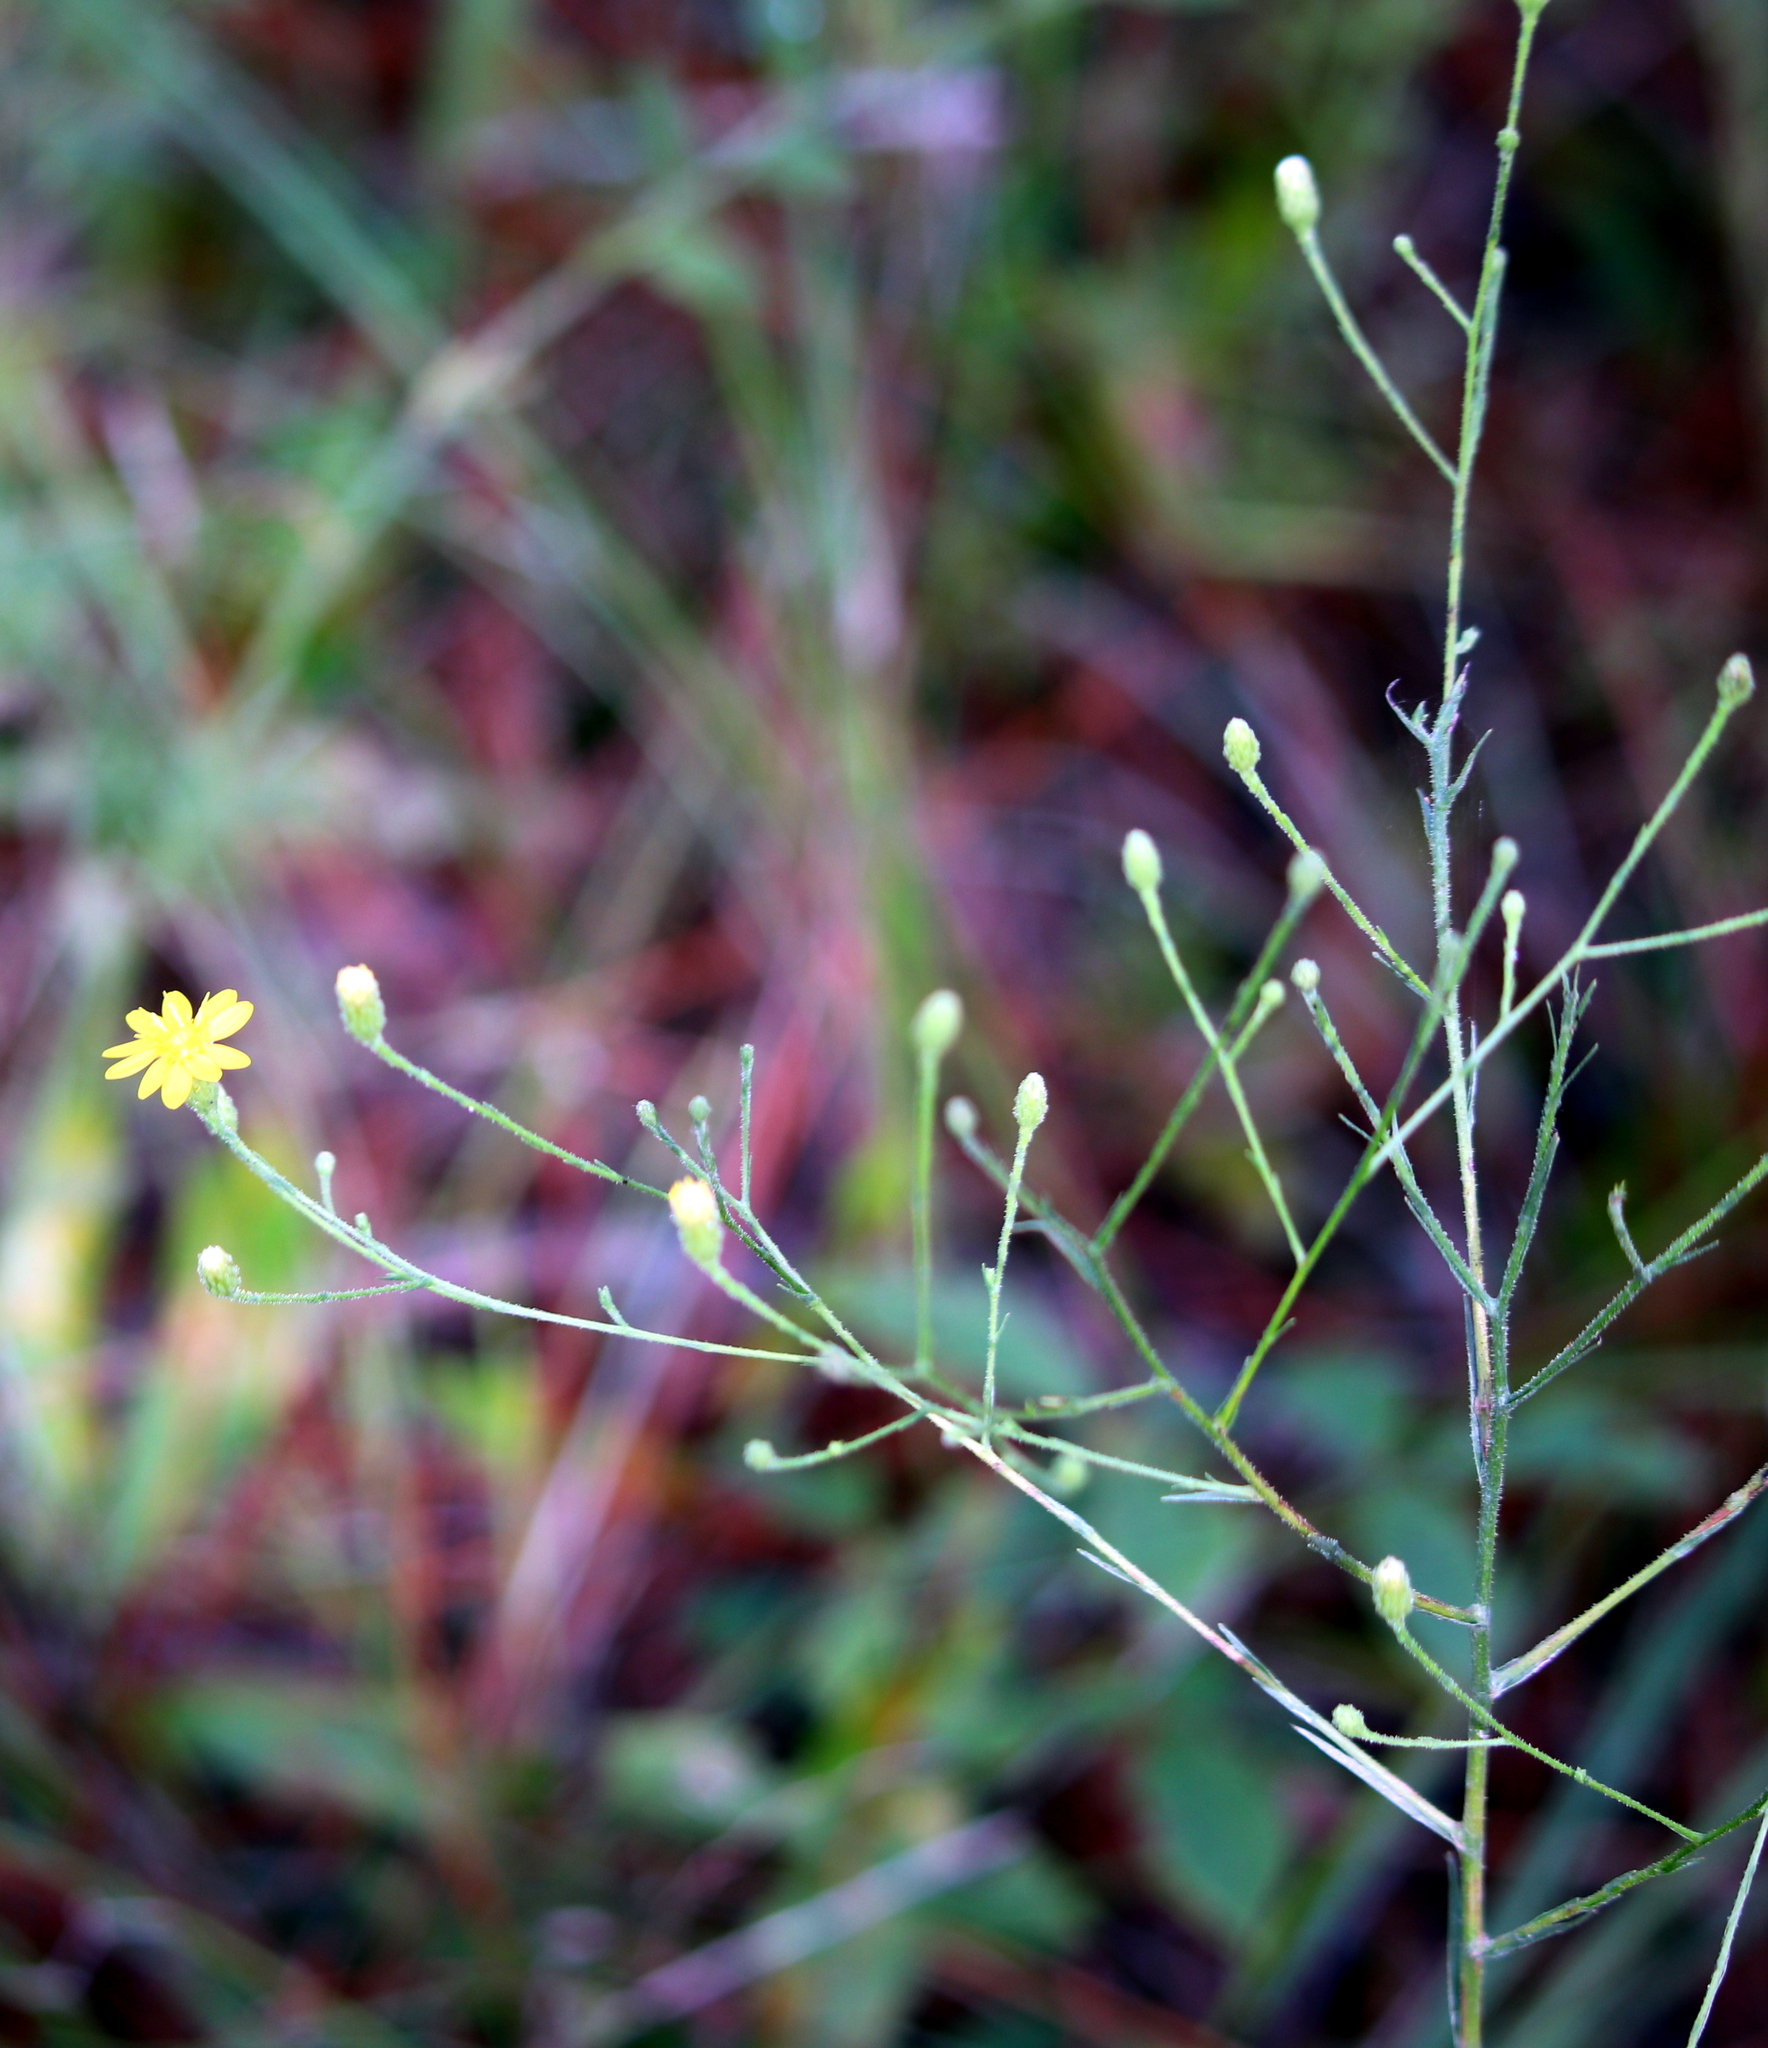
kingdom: Plantae
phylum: Tracheophyta
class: Magnoliopsida
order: Asterales
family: Asteraceae
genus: Pityopsis
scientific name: Pityopsis graminifolia
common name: Grass-leaf golden-aster
